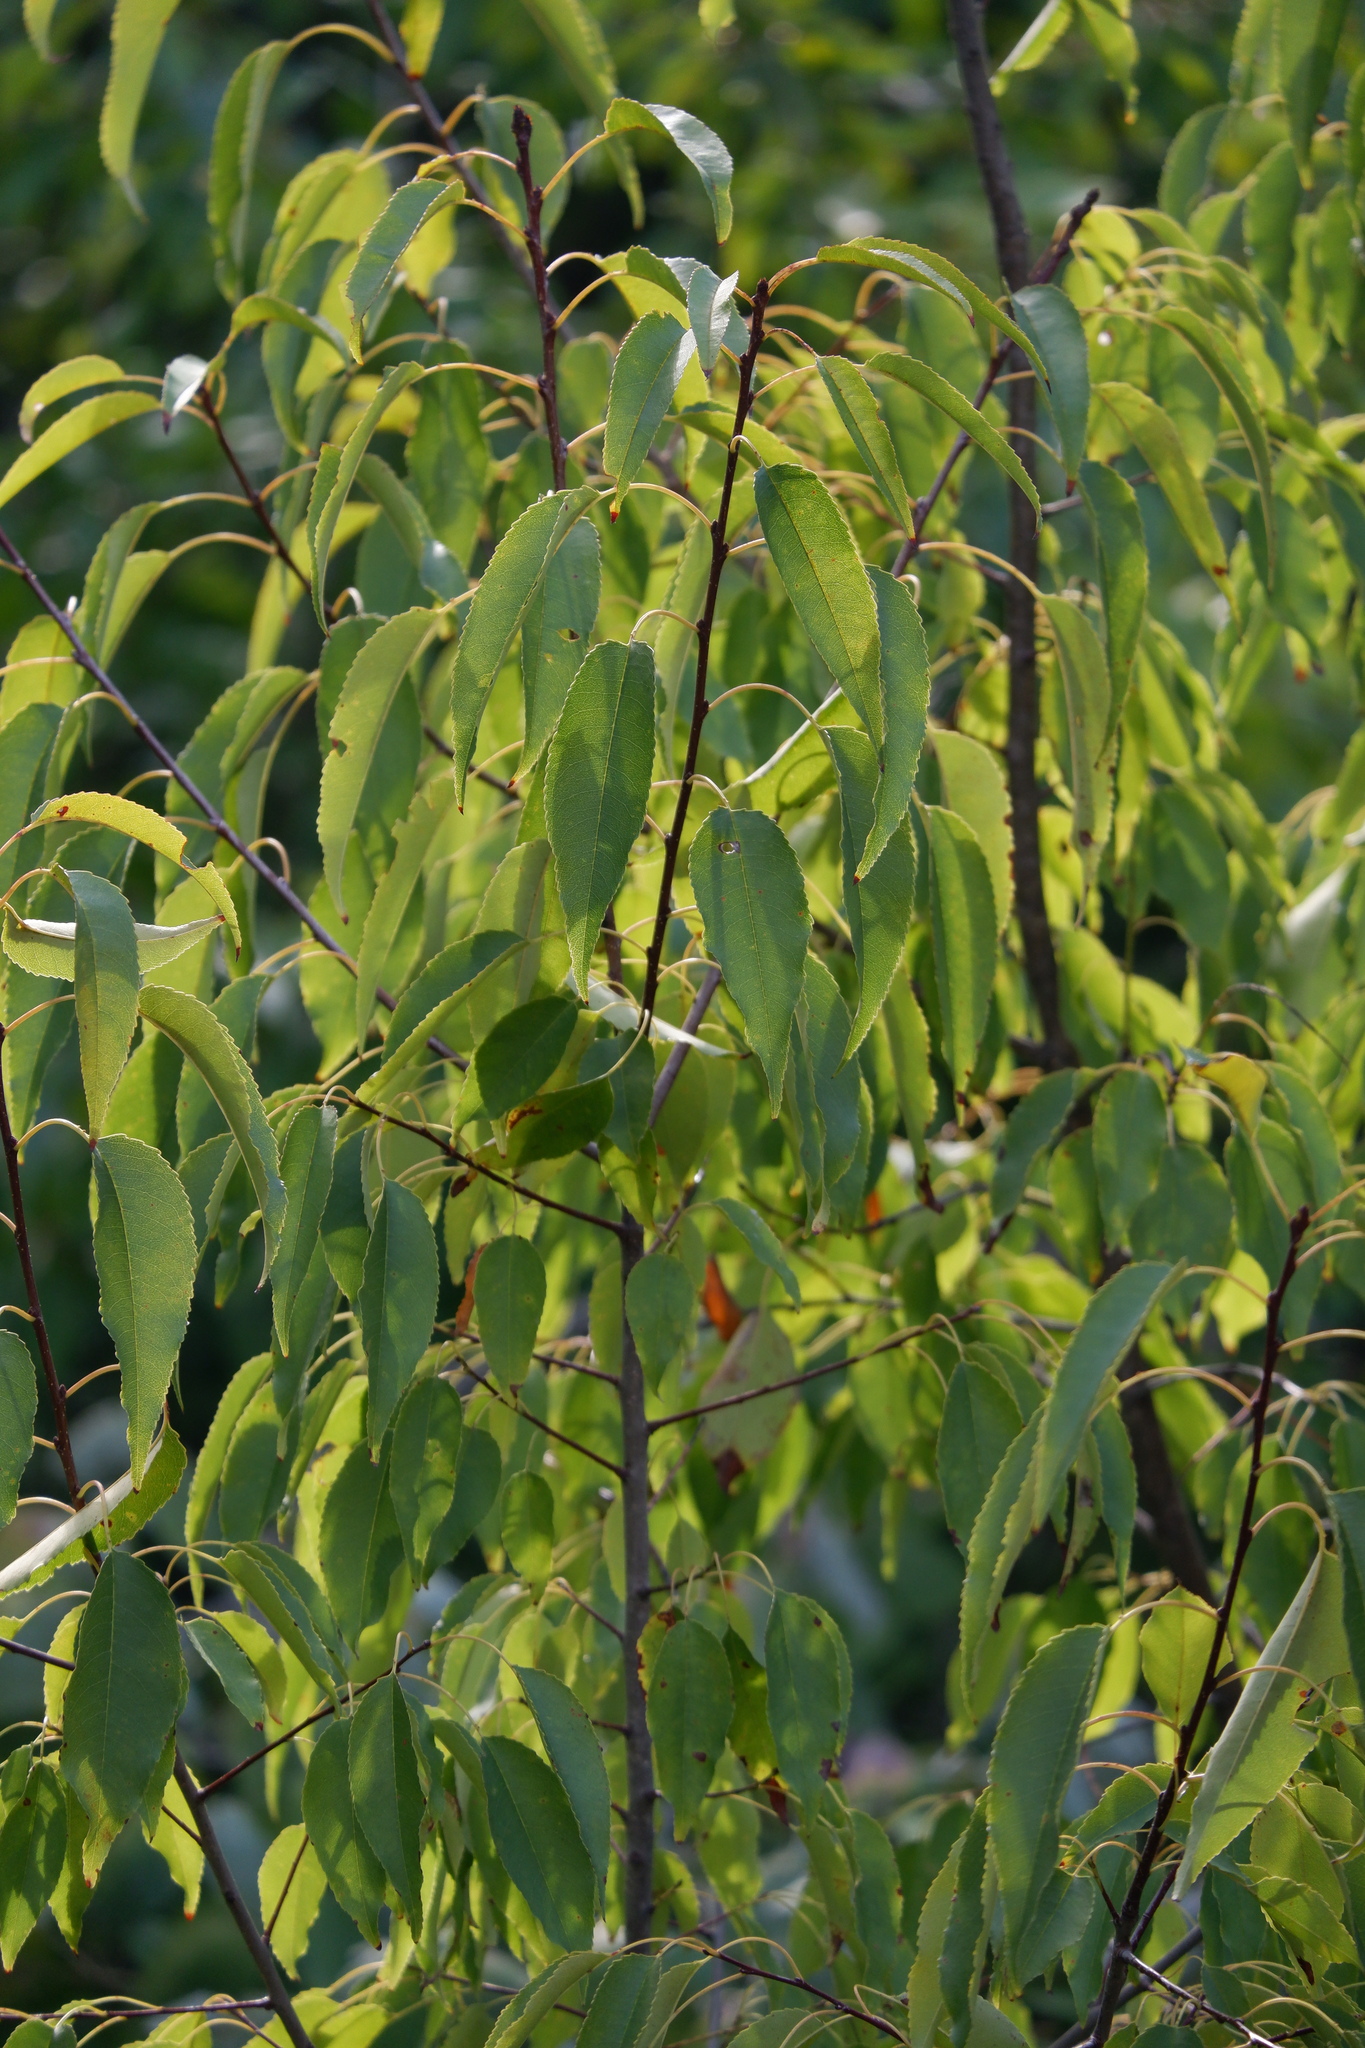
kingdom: Plantae
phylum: Tracheophyta
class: Magnoliopsida
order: Rosales
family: Rosaceae
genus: Prunus
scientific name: Prunus serotina
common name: Black cherry
